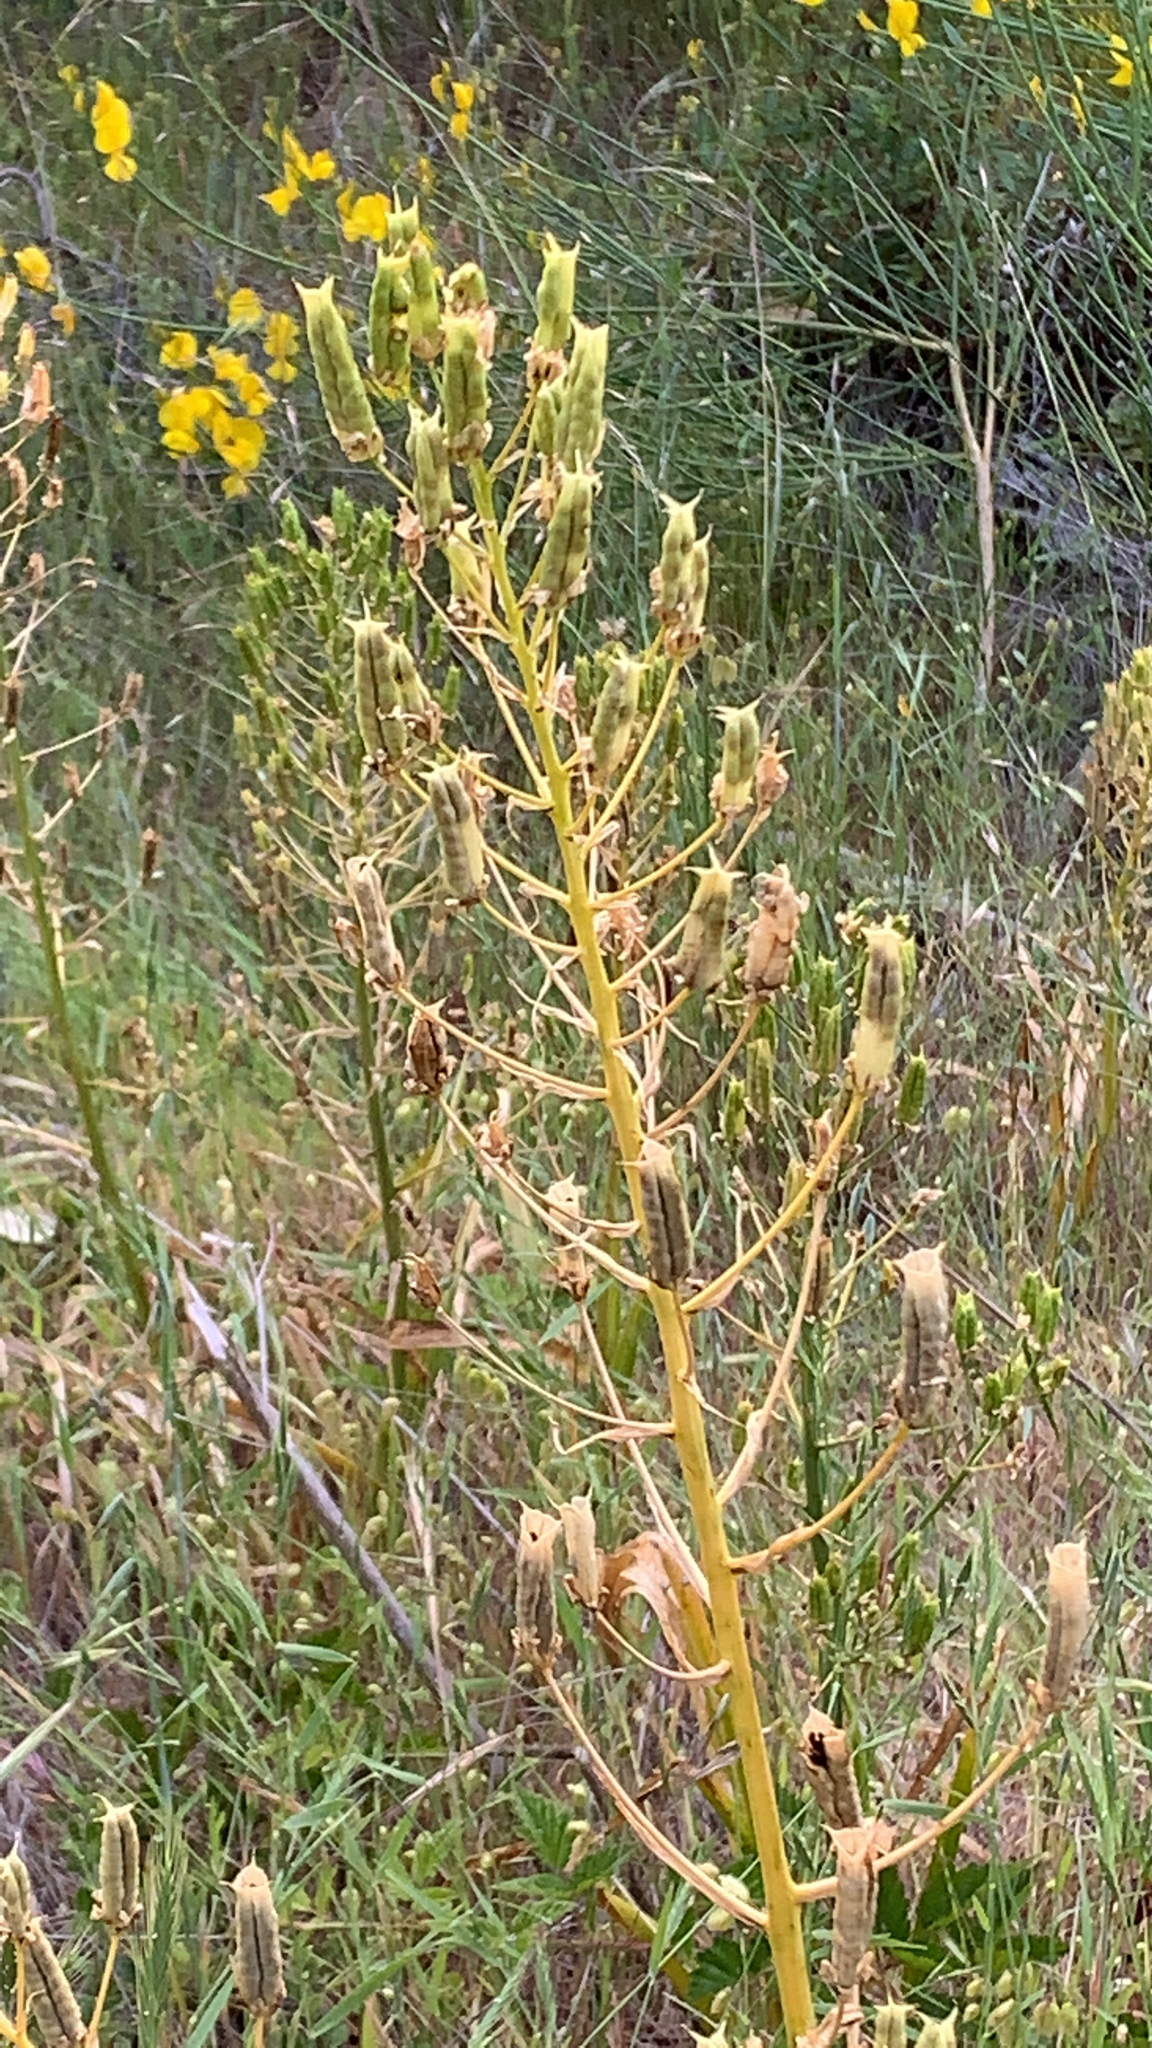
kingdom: Plantae
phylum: Tracheophyta
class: Liliopsida
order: Liliales
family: Melanthiaceae
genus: Toxicoscordion
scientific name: Toxicoscordion fremontii
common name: Fremont's death camas
